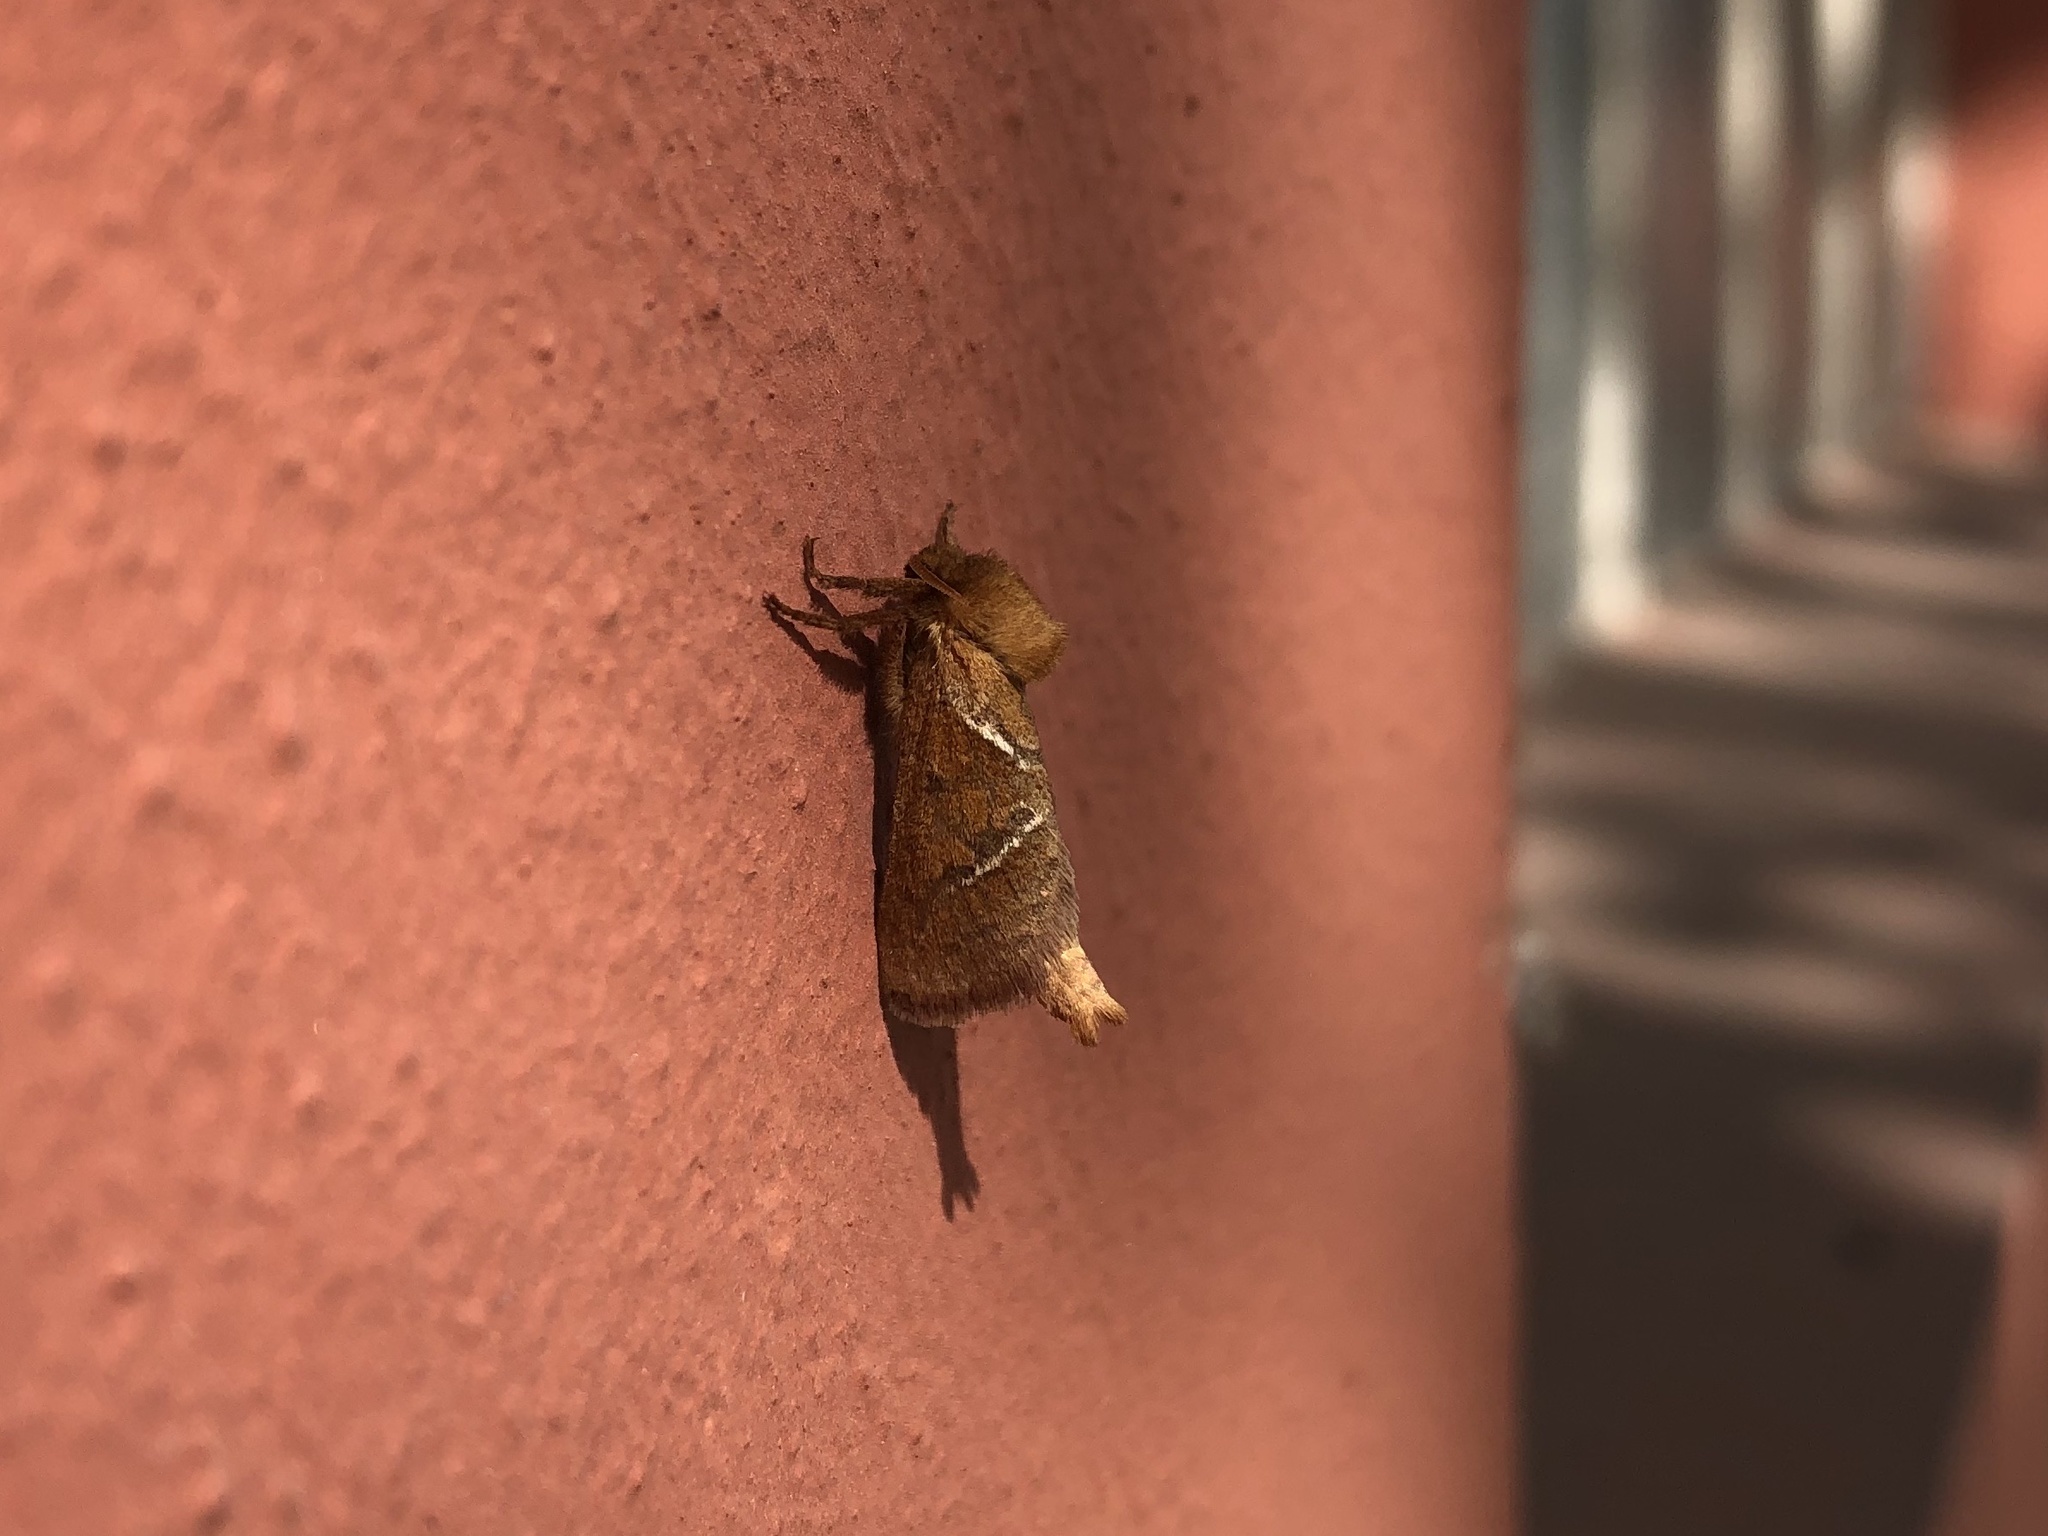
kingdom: Animalia
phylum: Arthropoda
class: Insecta
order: Lepidoptera
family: Hepialidae
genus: Triodia
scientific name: Triodia sylvina
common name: Orange swift
